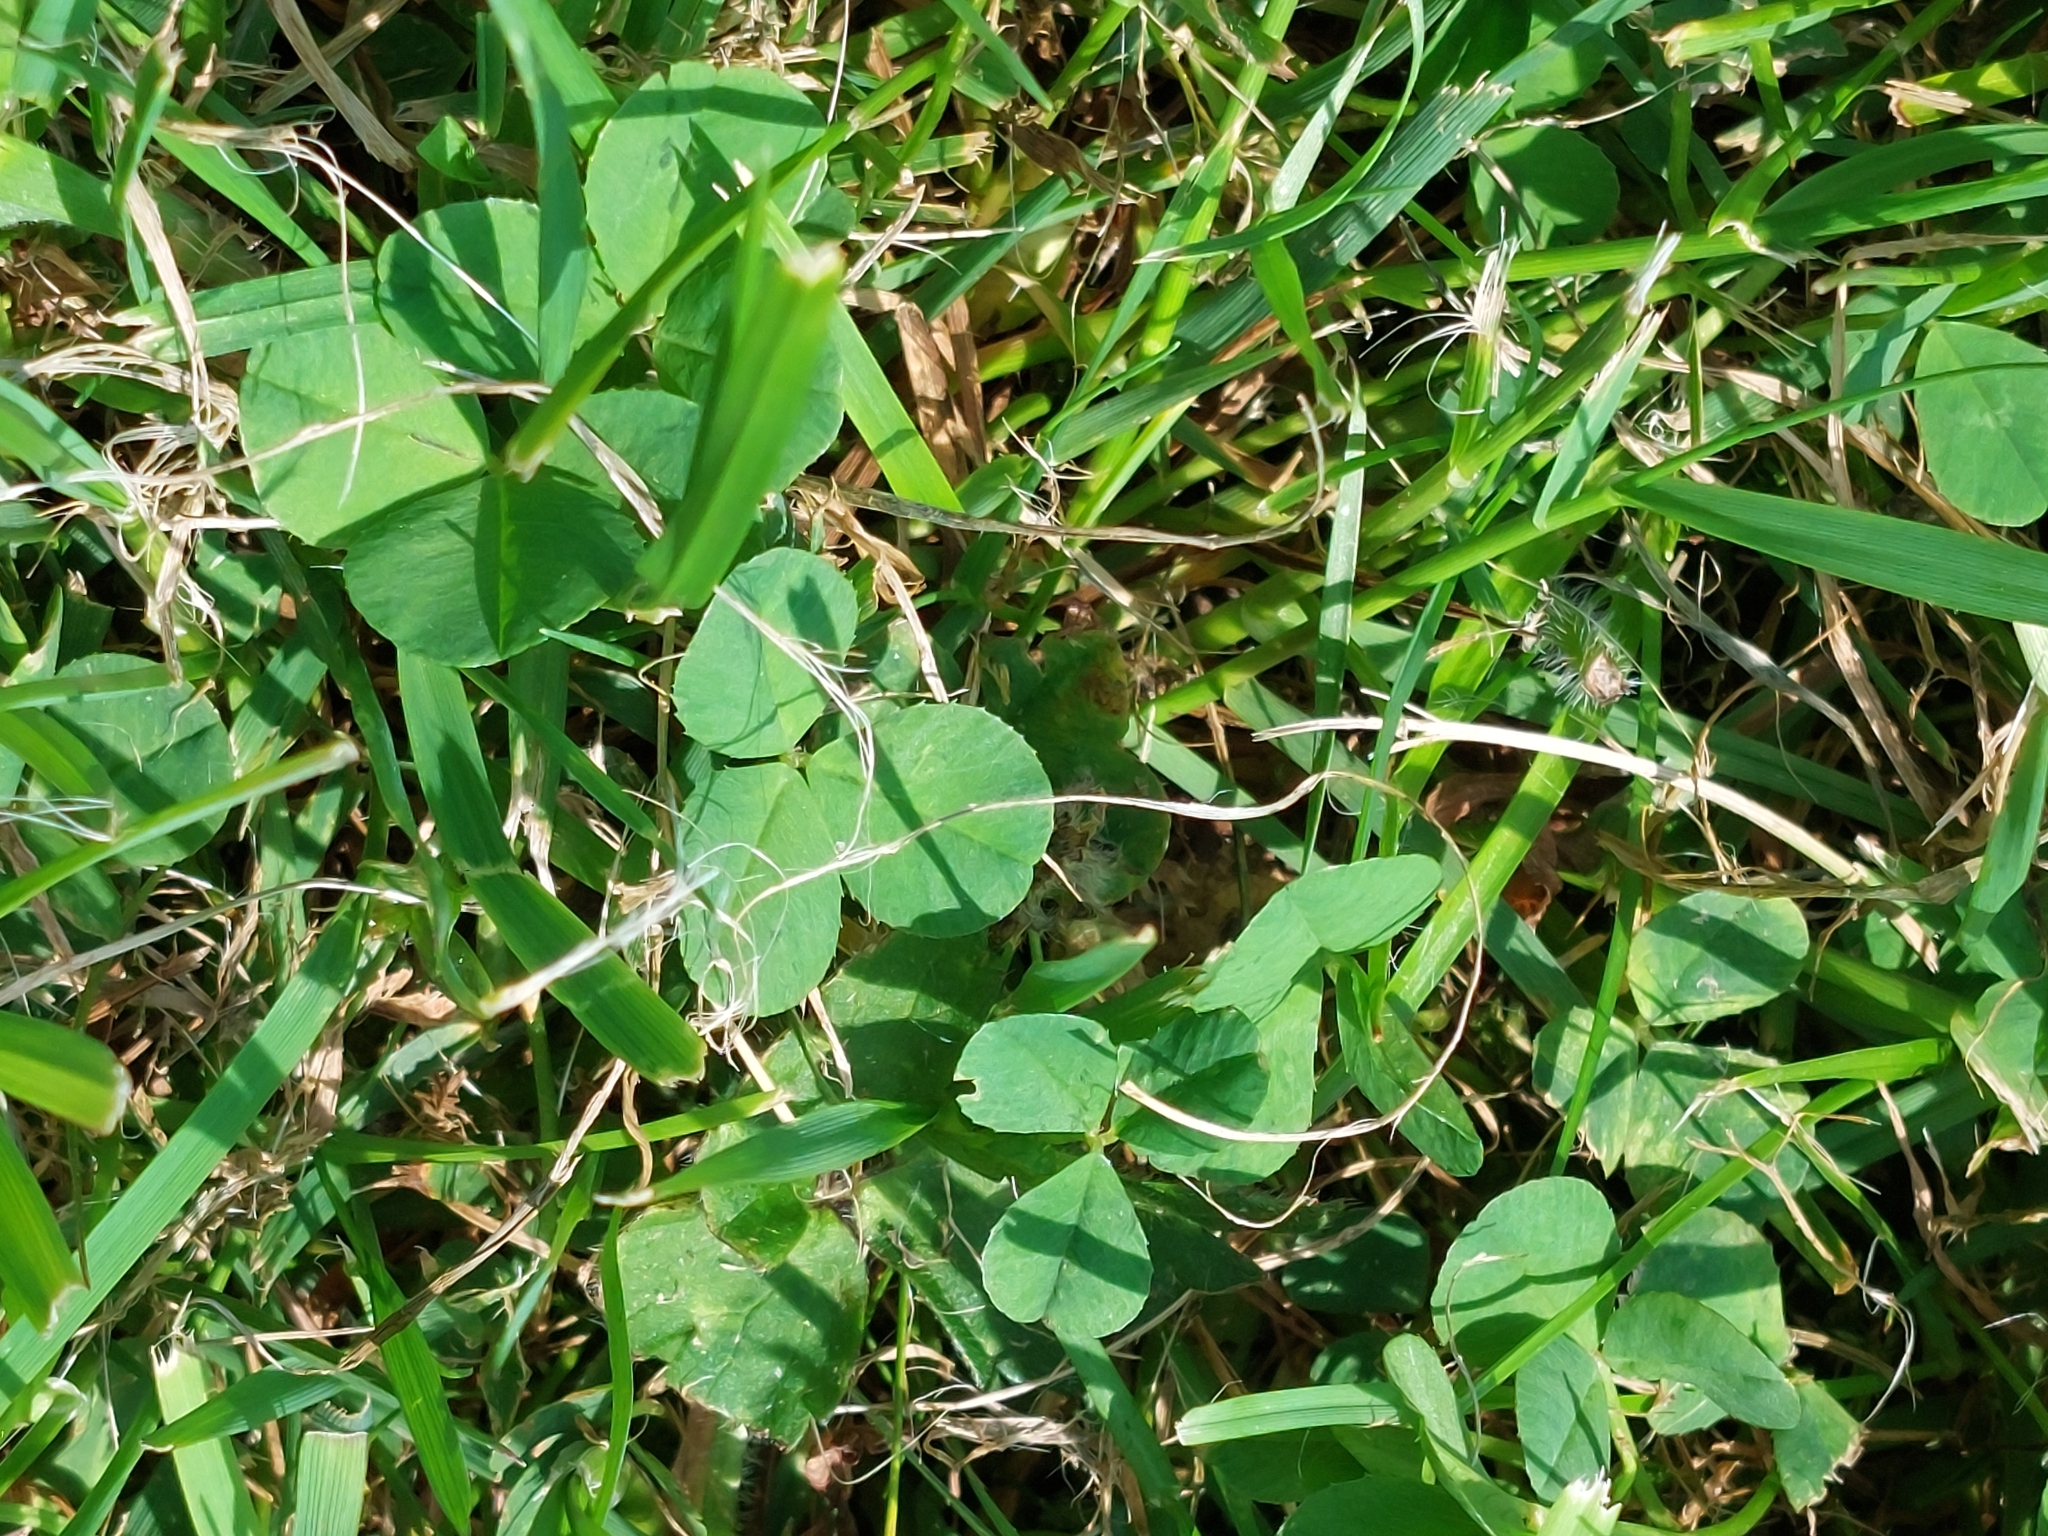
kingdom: Plantae
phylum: Tracheophyta
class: Magnoliopsida
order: Fabales
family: Fabaceae
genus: Trifolium
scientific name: Trifolium repens
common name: White clover
